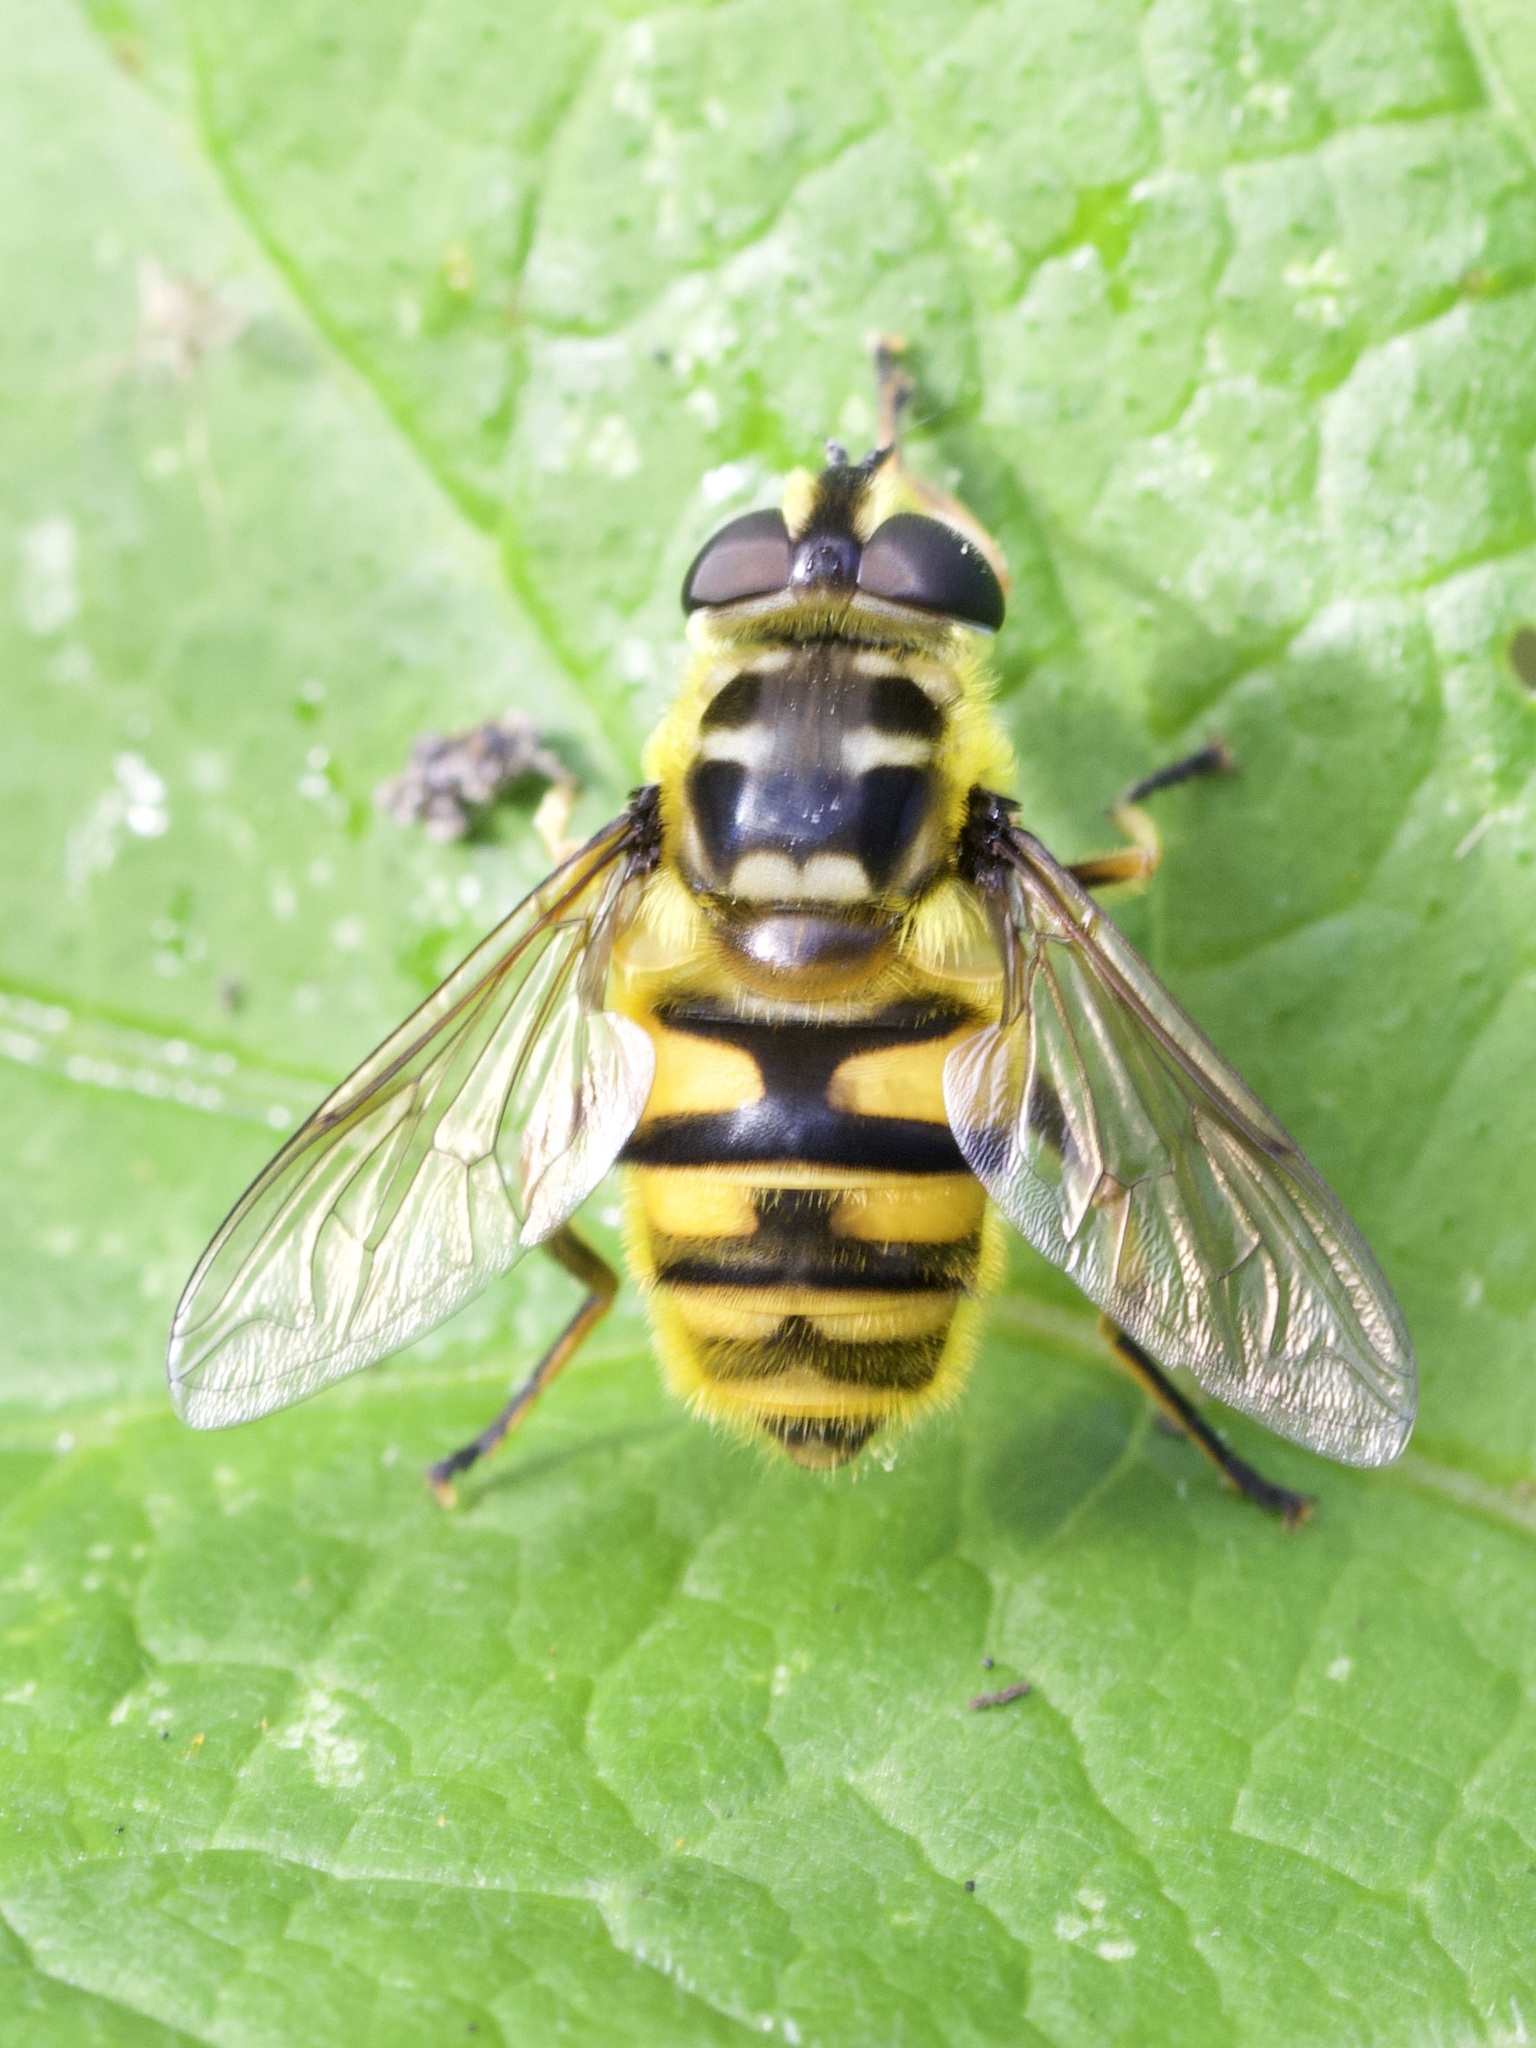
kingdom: Animalia
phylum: Arthropoda
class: Insecta
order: Diptera
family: Syrphidae
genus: Myathropa
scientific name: Myathropa florea
